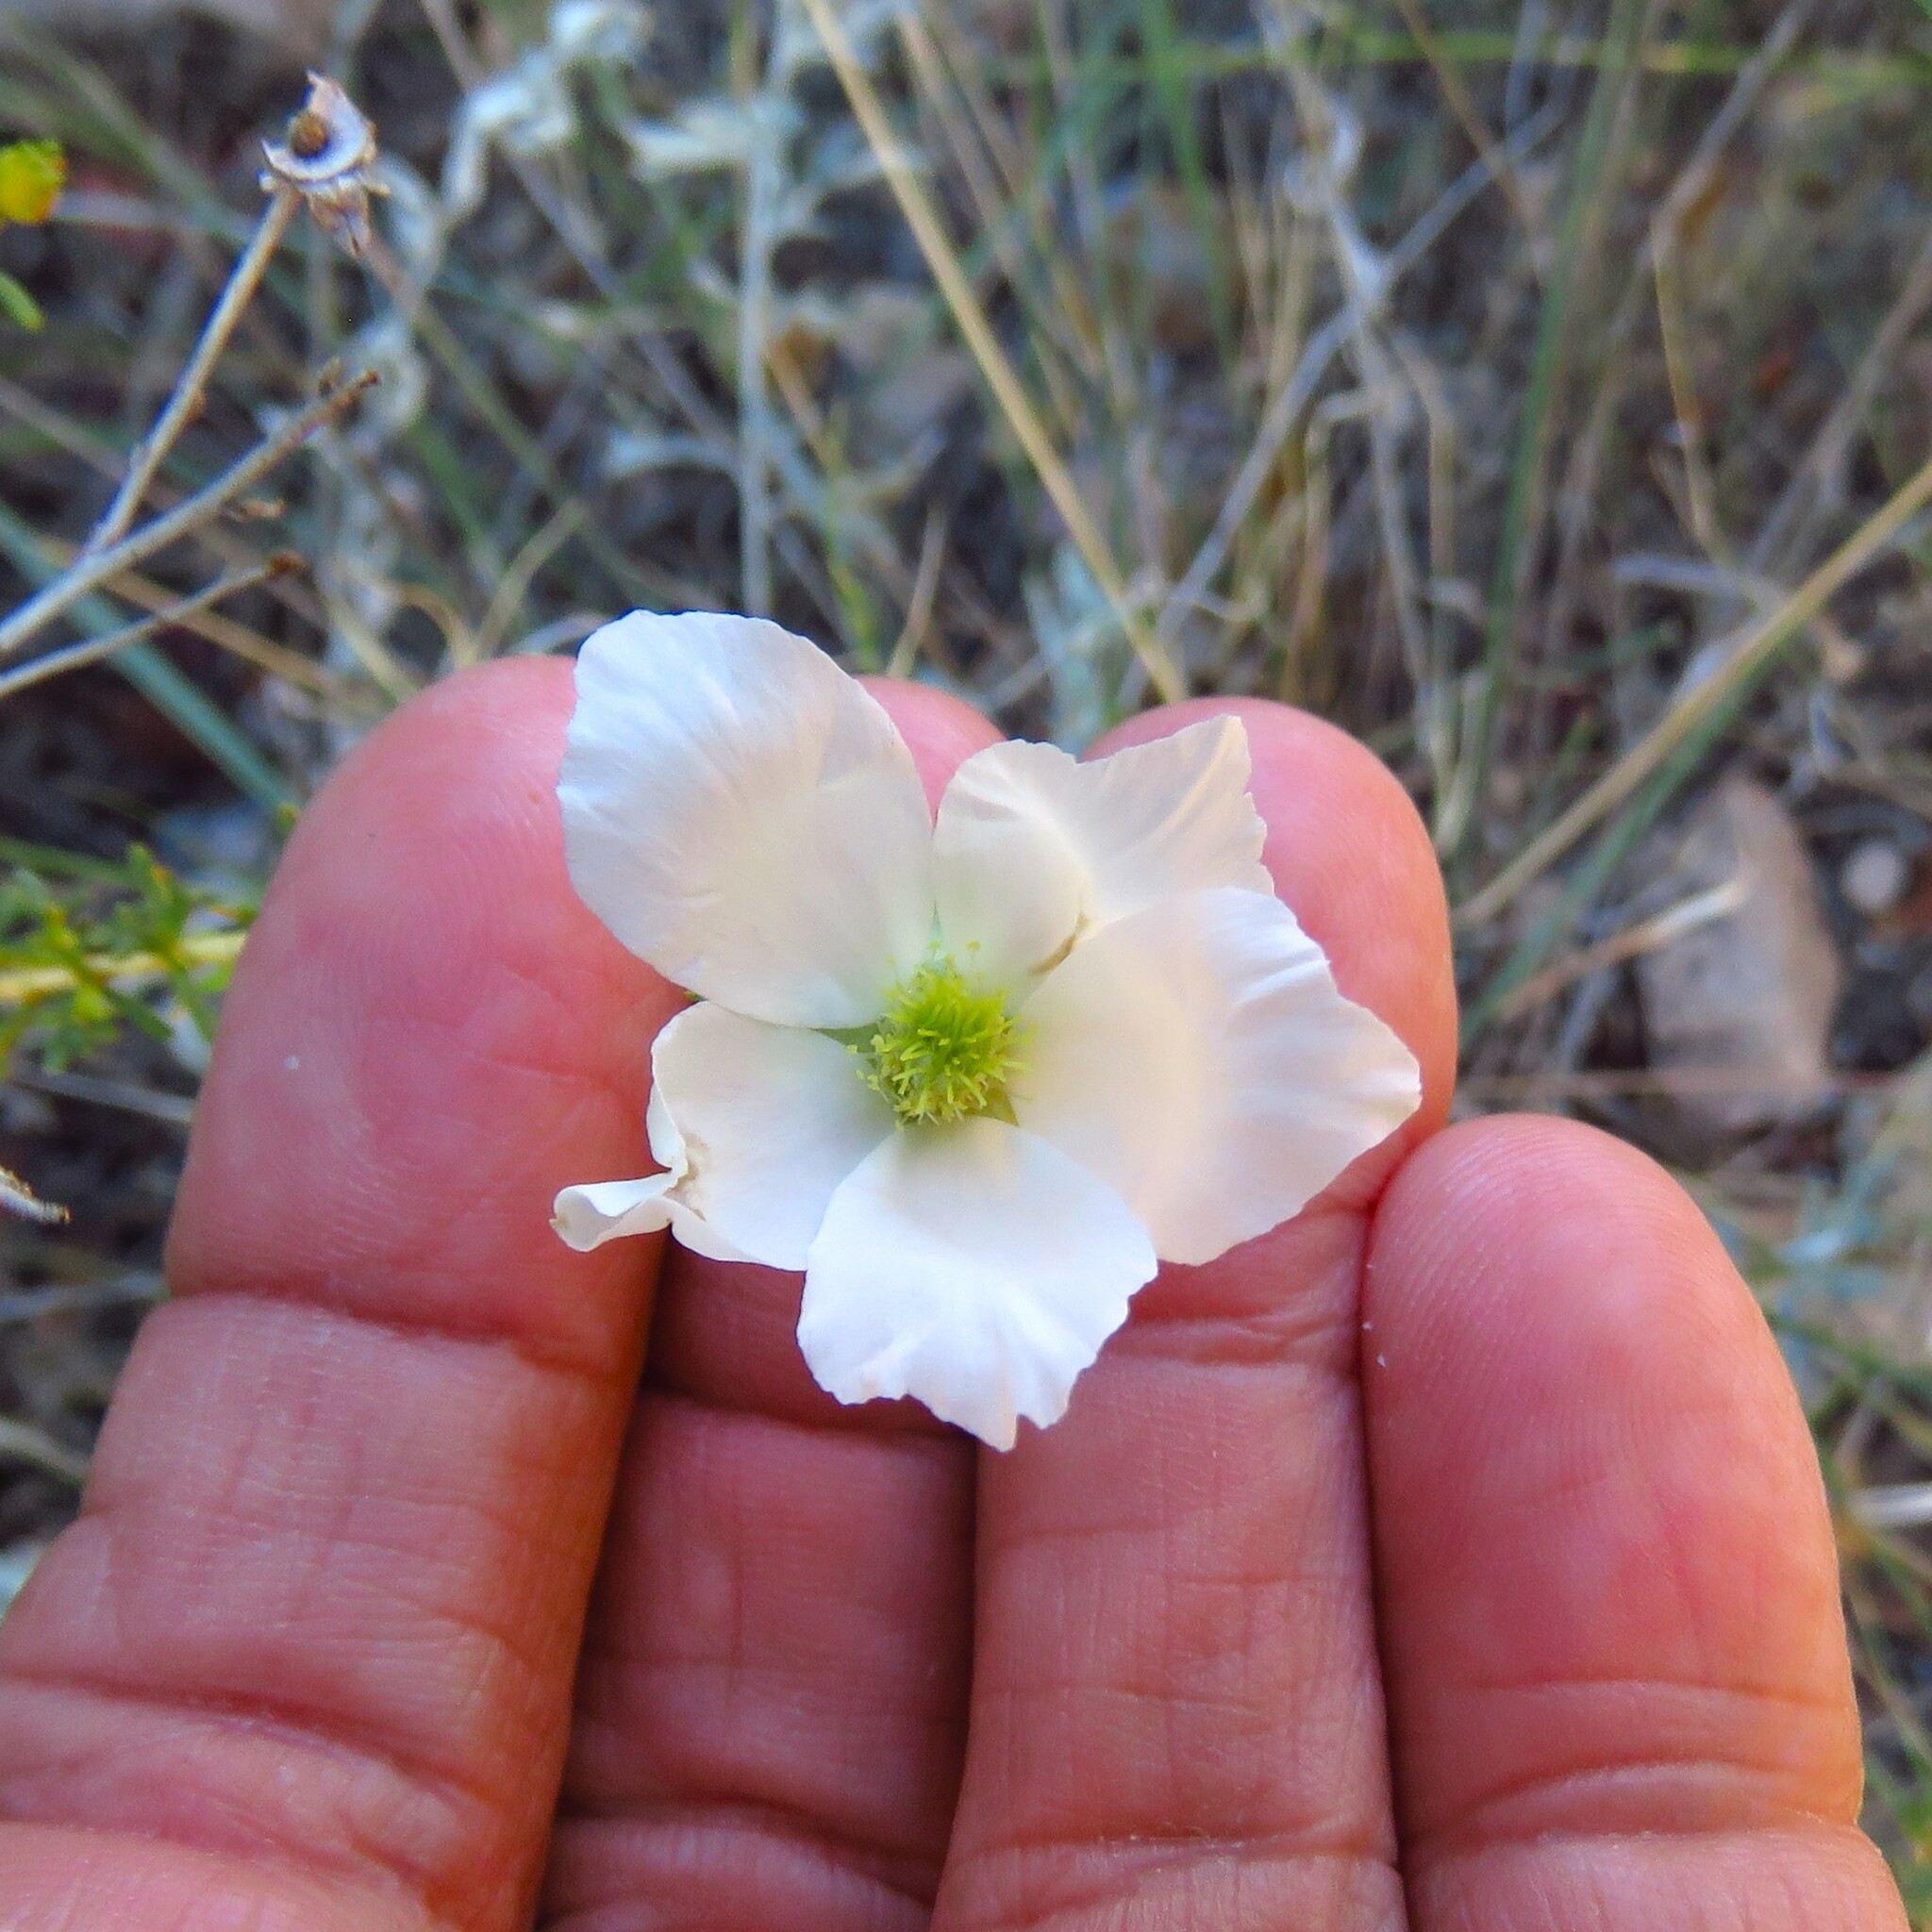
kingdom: Plantae
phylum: Tracheophyta
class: Magnoliopsida
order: Rosales
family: Rosaceae
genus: Fallugia
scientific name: Fallugia paradoxa
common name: Apache-plume
